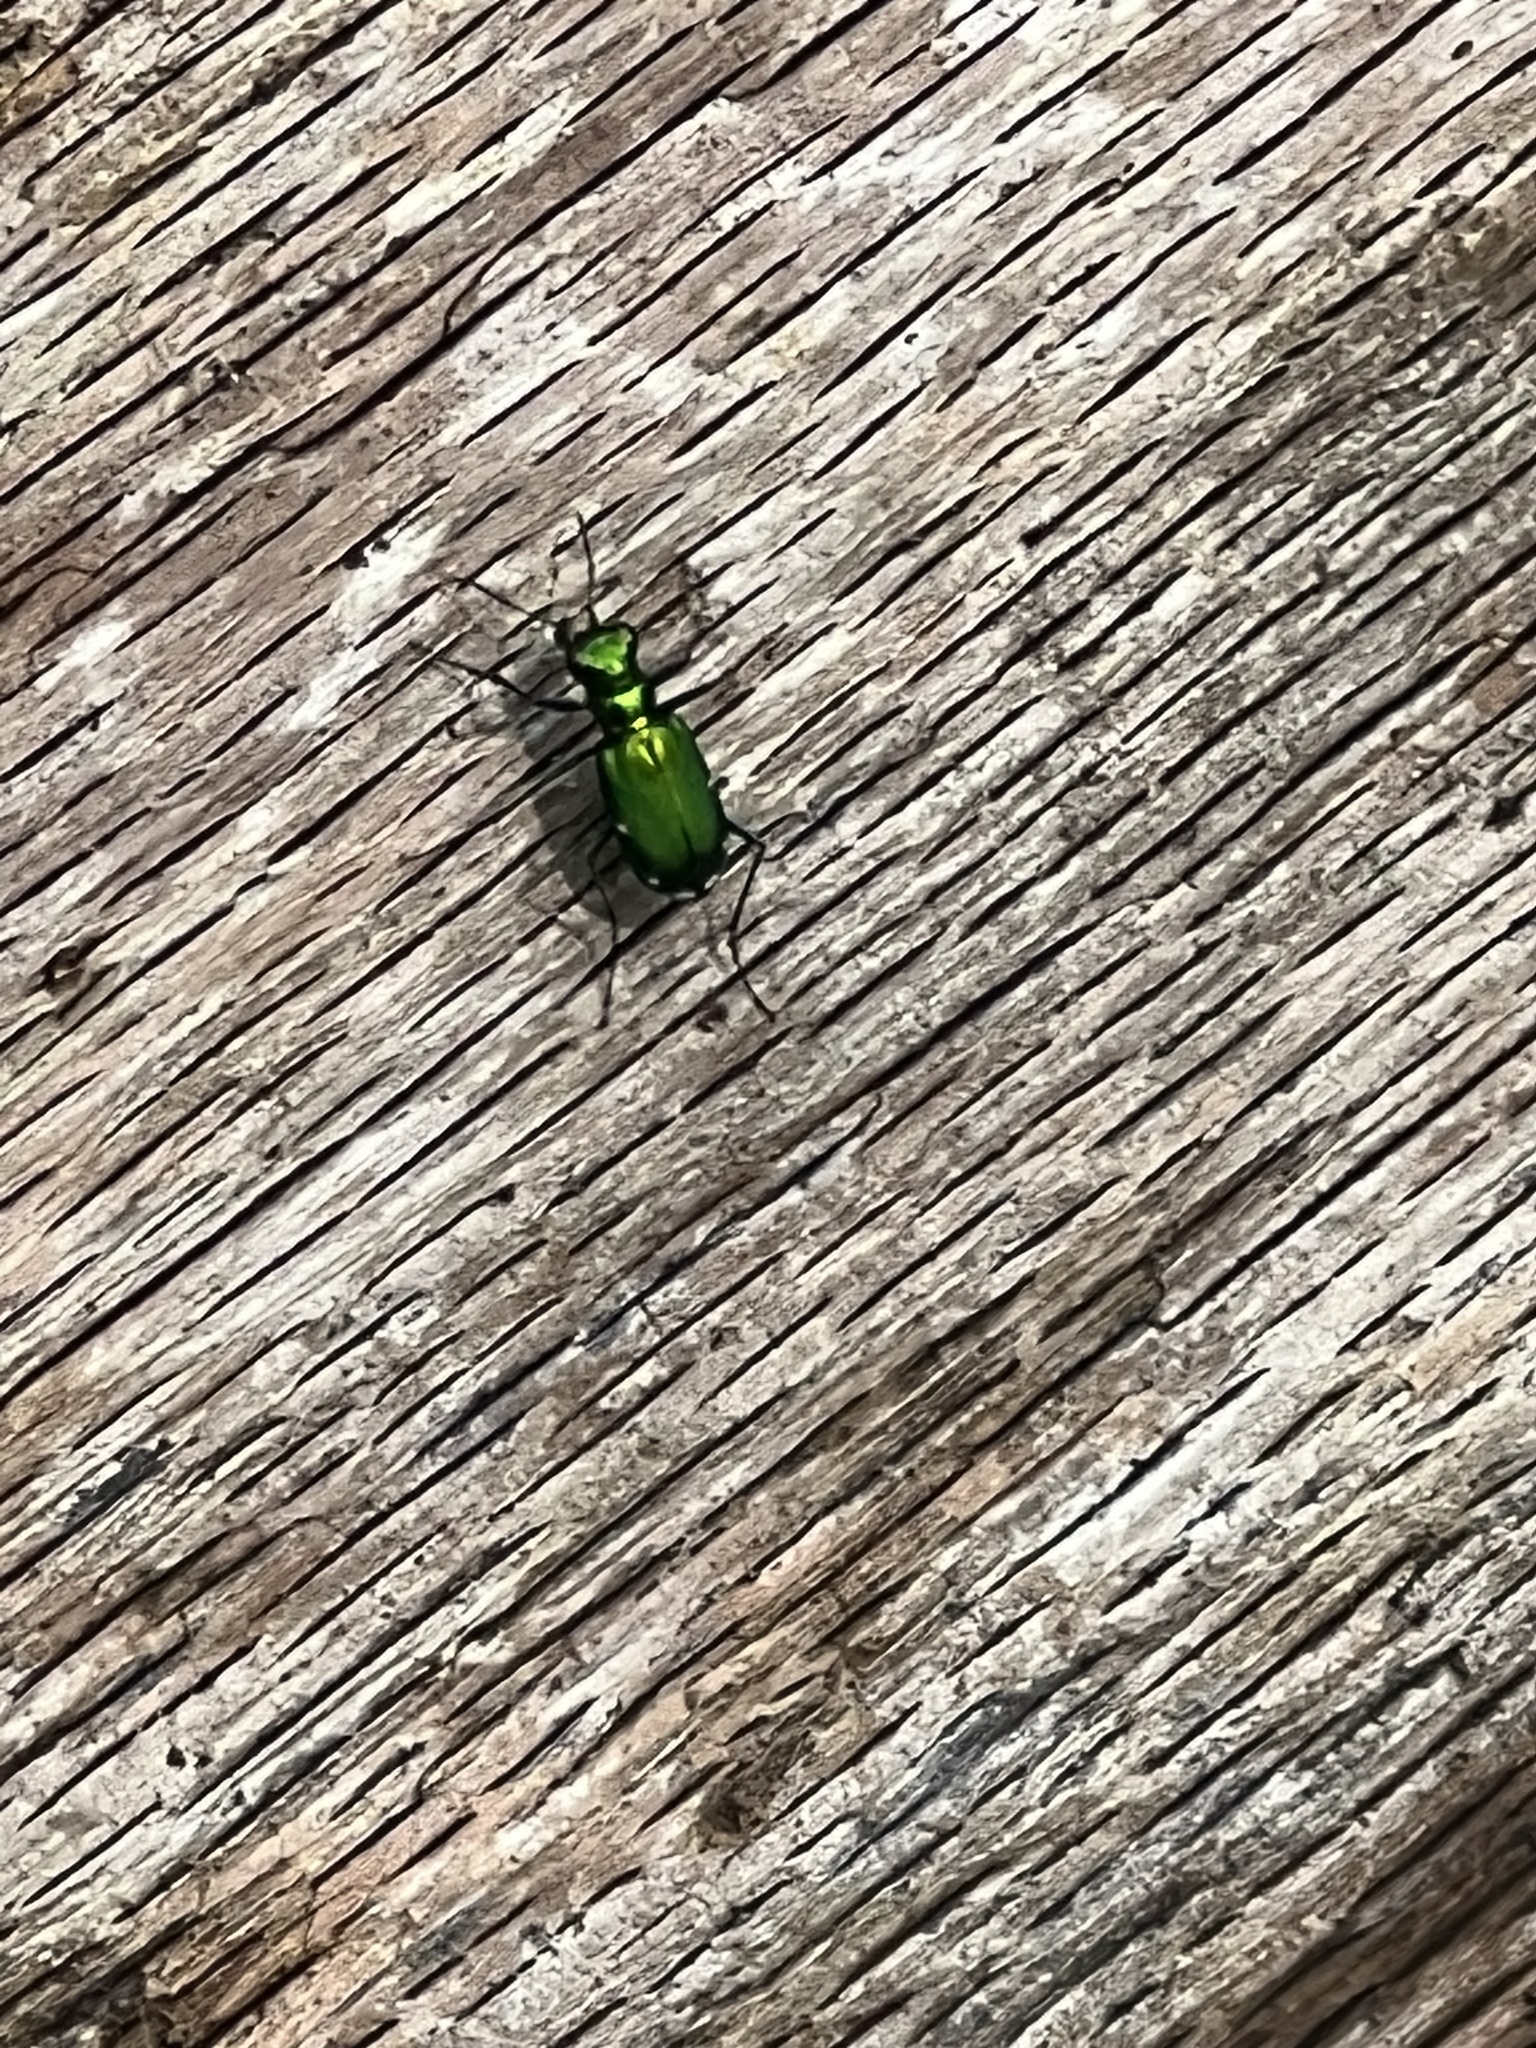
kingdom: Animalia
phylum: Arthropoda
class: Insecta
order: Coleoptera
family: Carabidae
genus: Cicindela
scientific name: Cicindela sexguttata
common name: Six-spotted tiger beetle
